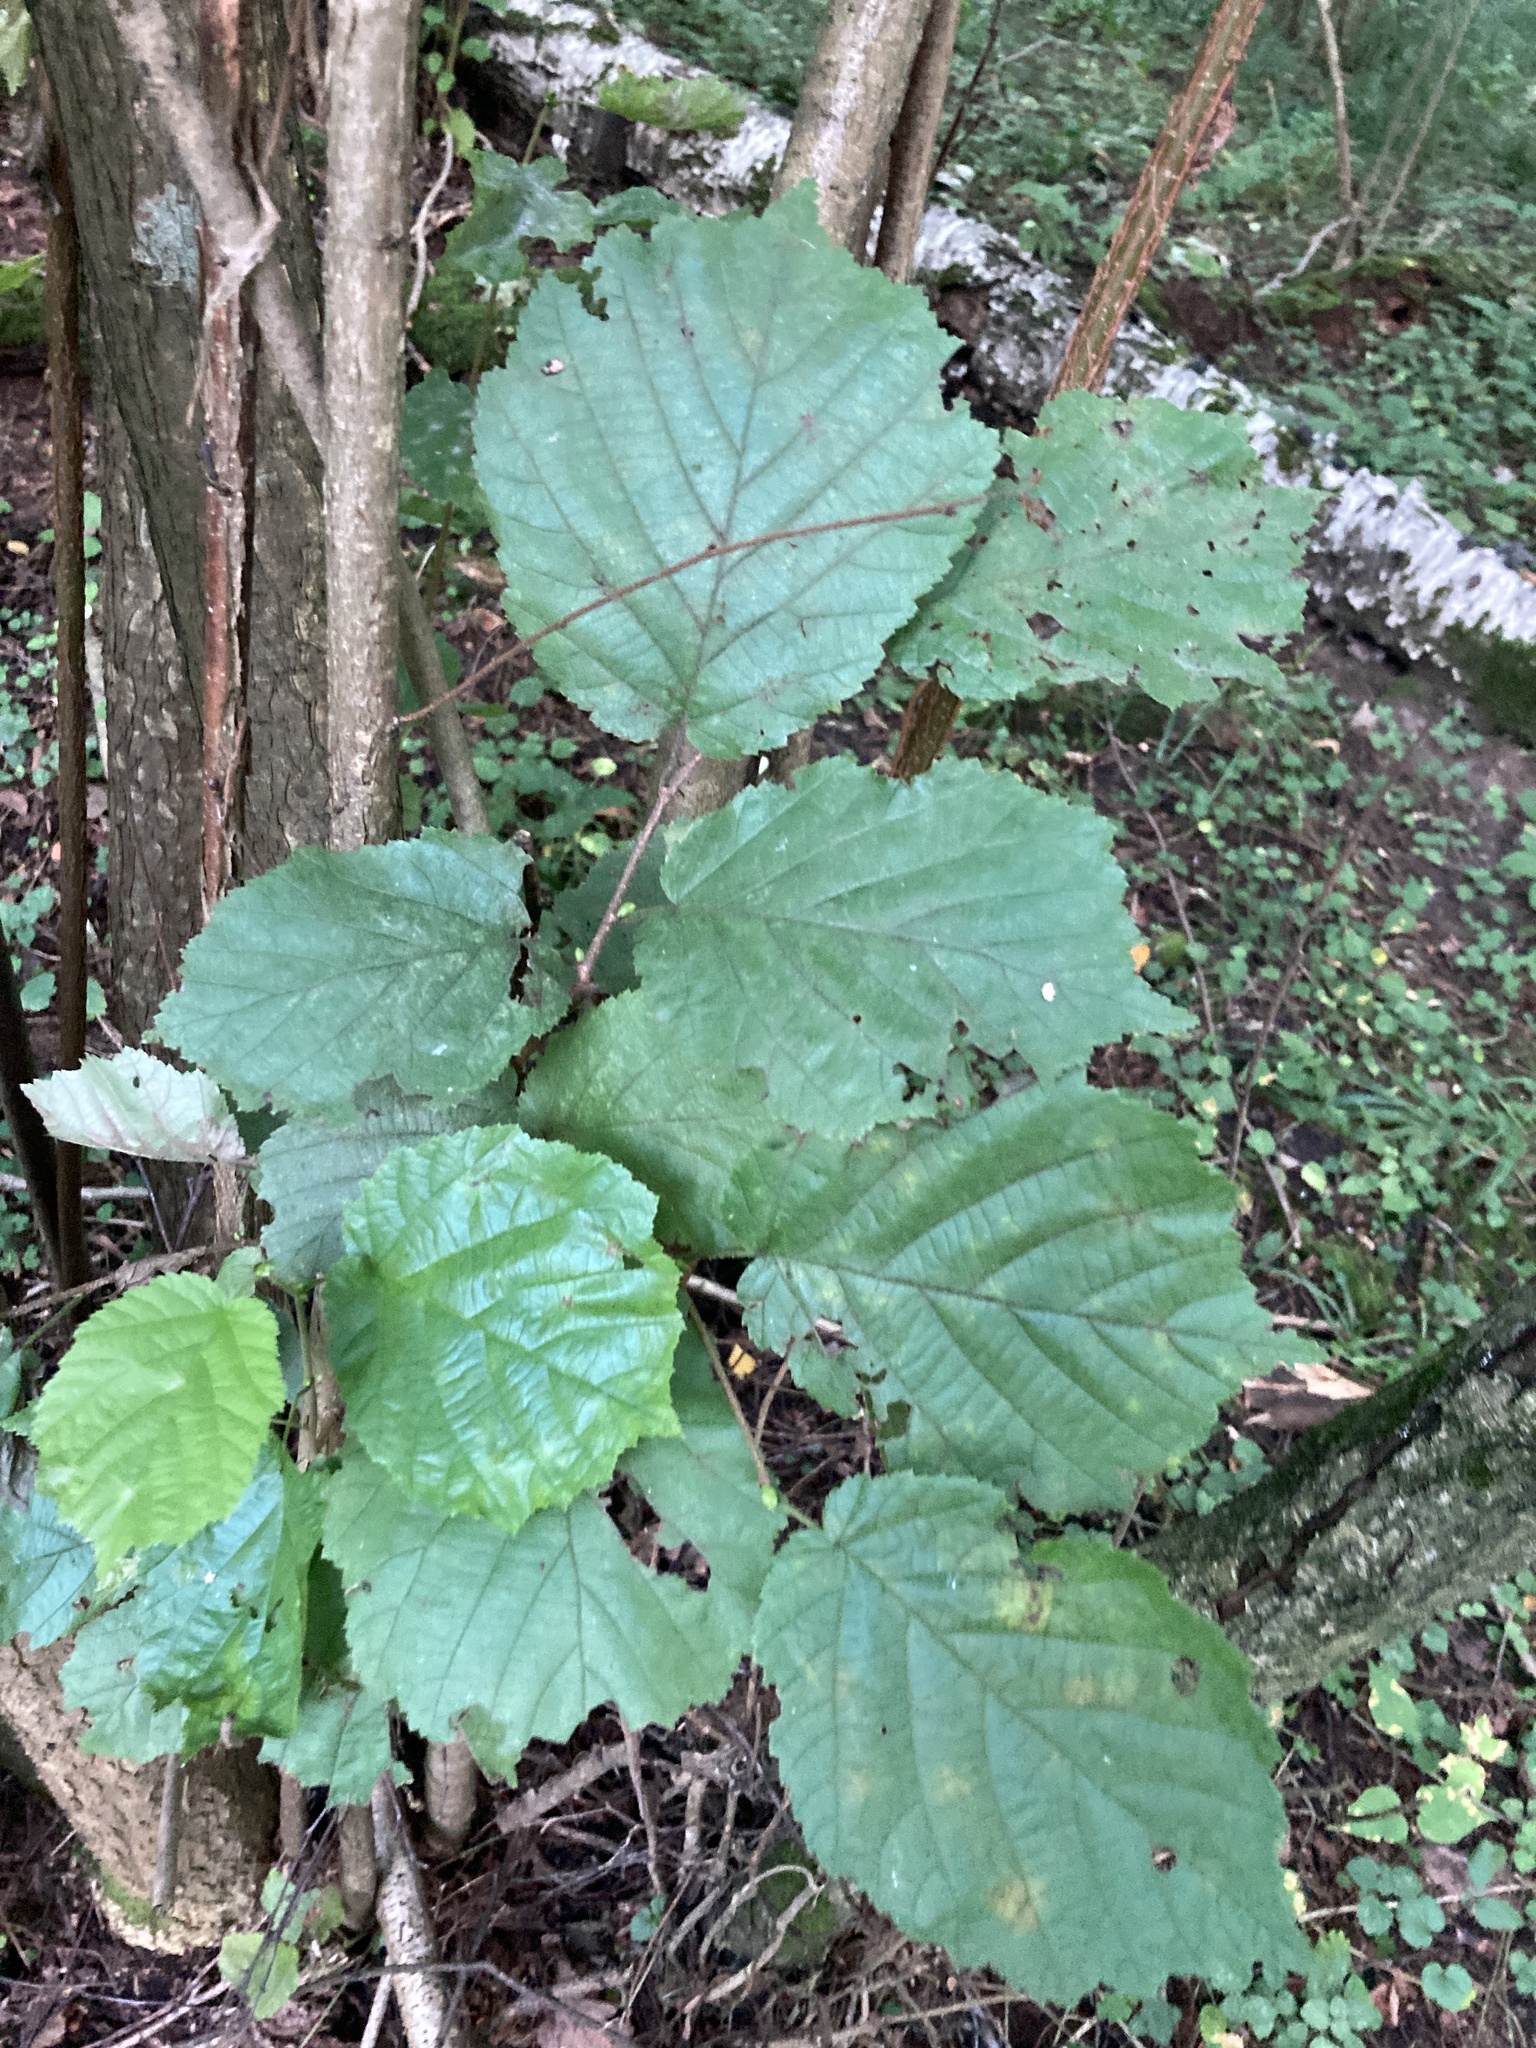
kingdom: Plantae
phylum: Tracheophyta
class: Magnoliopsida
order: Fagales
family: Betulaceae
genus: Corylus
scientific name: Corylus avellana
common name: European hazel
